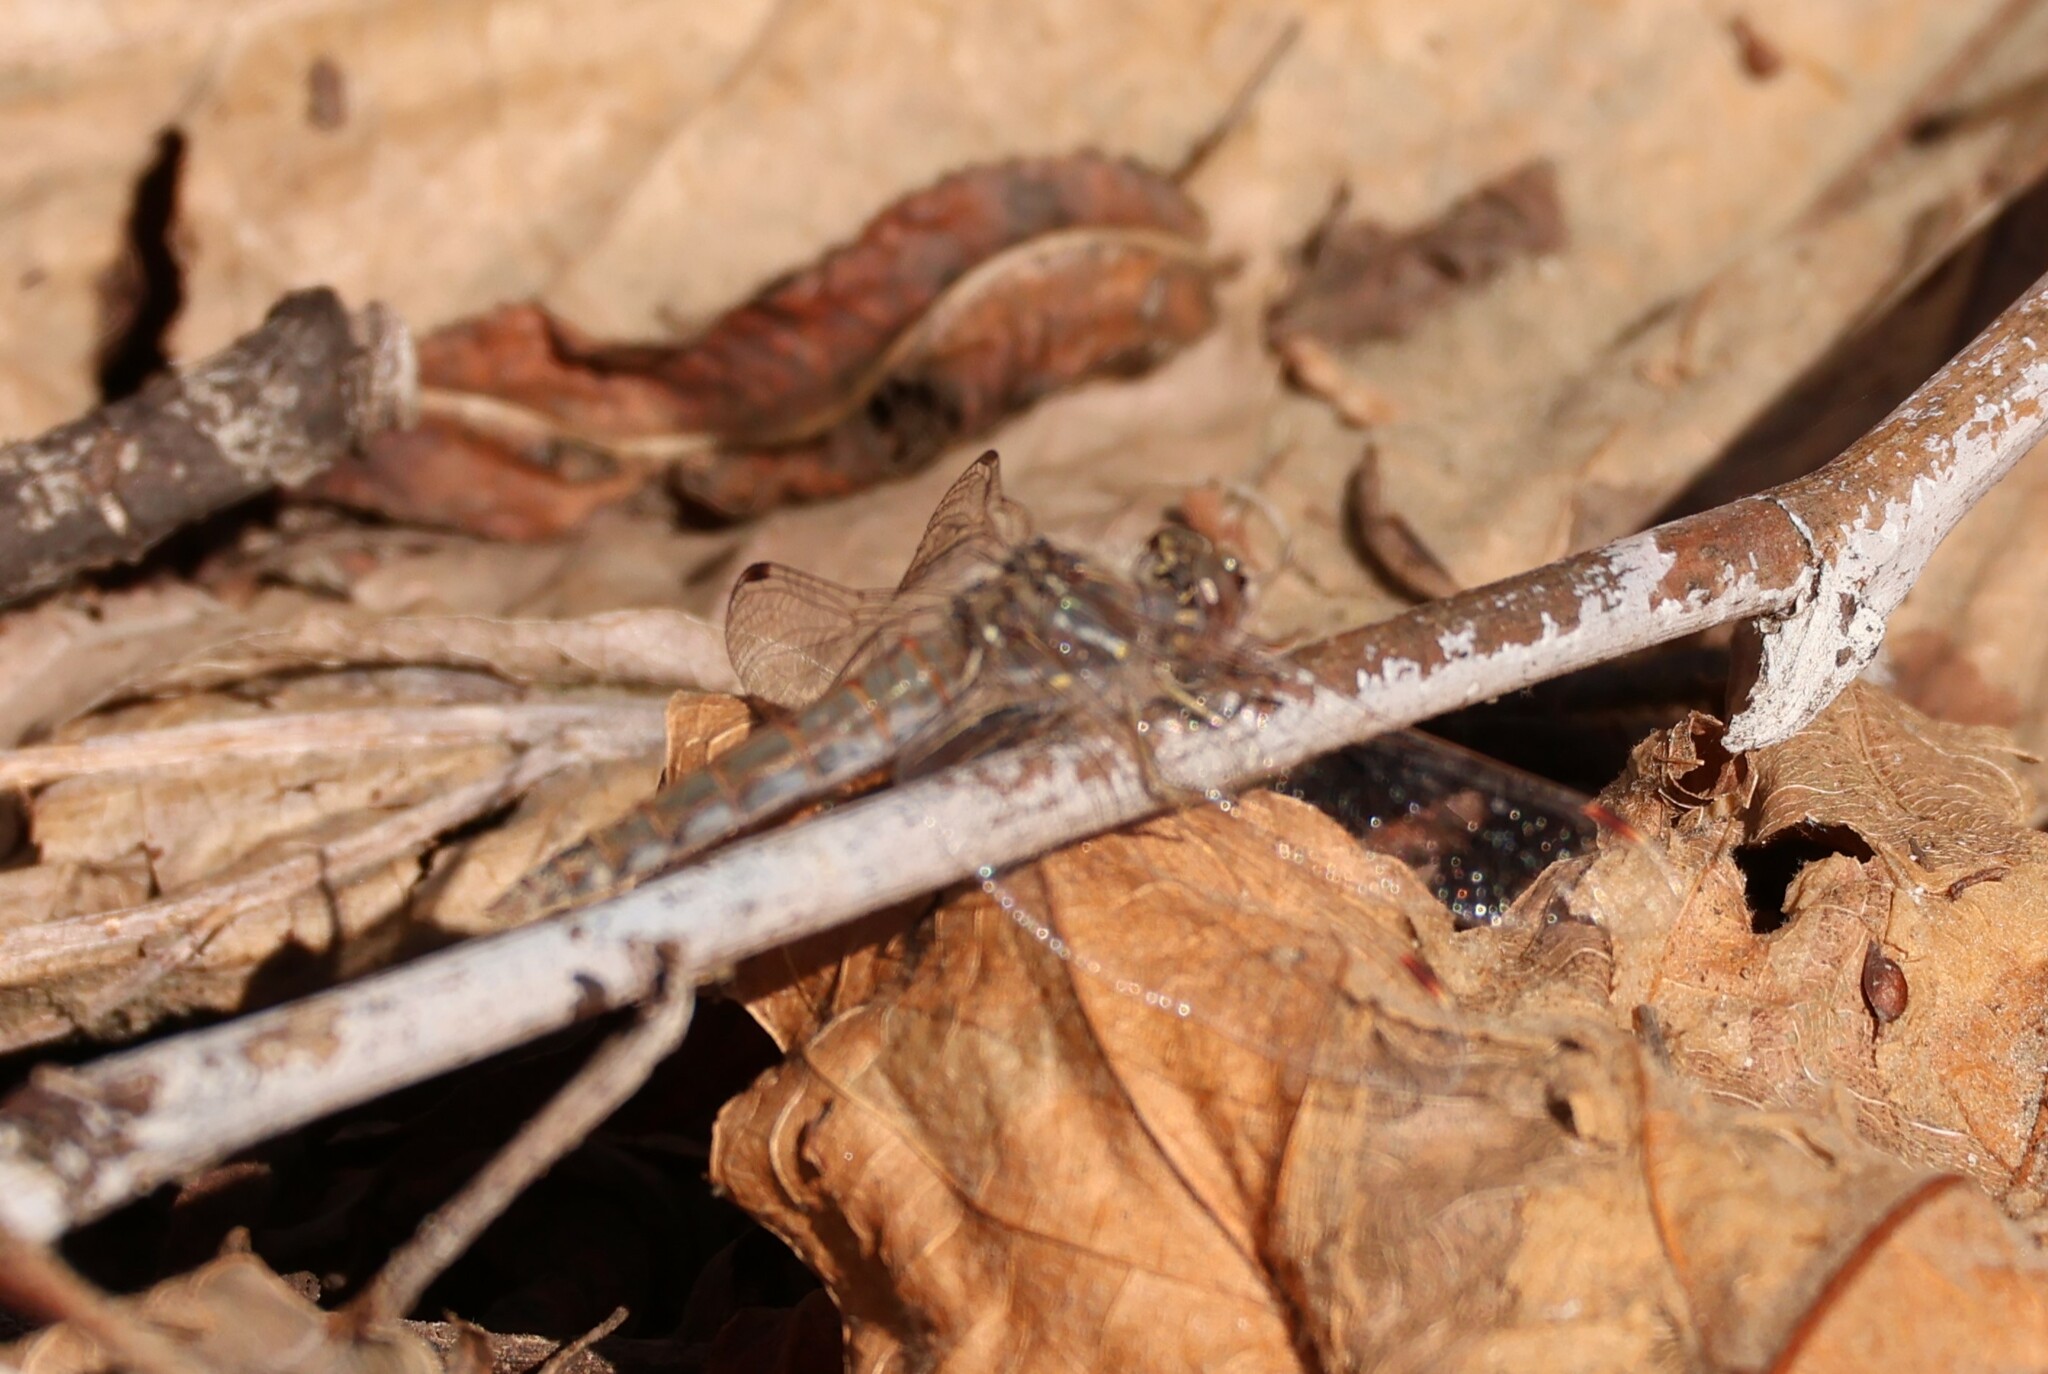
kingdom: Animalia
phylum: Arthropoda
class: Insecta
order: Odonata
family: Libellulidae
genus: Sympetrum
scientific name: Sympetrum corruptum
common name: Variegated meadowhawk
